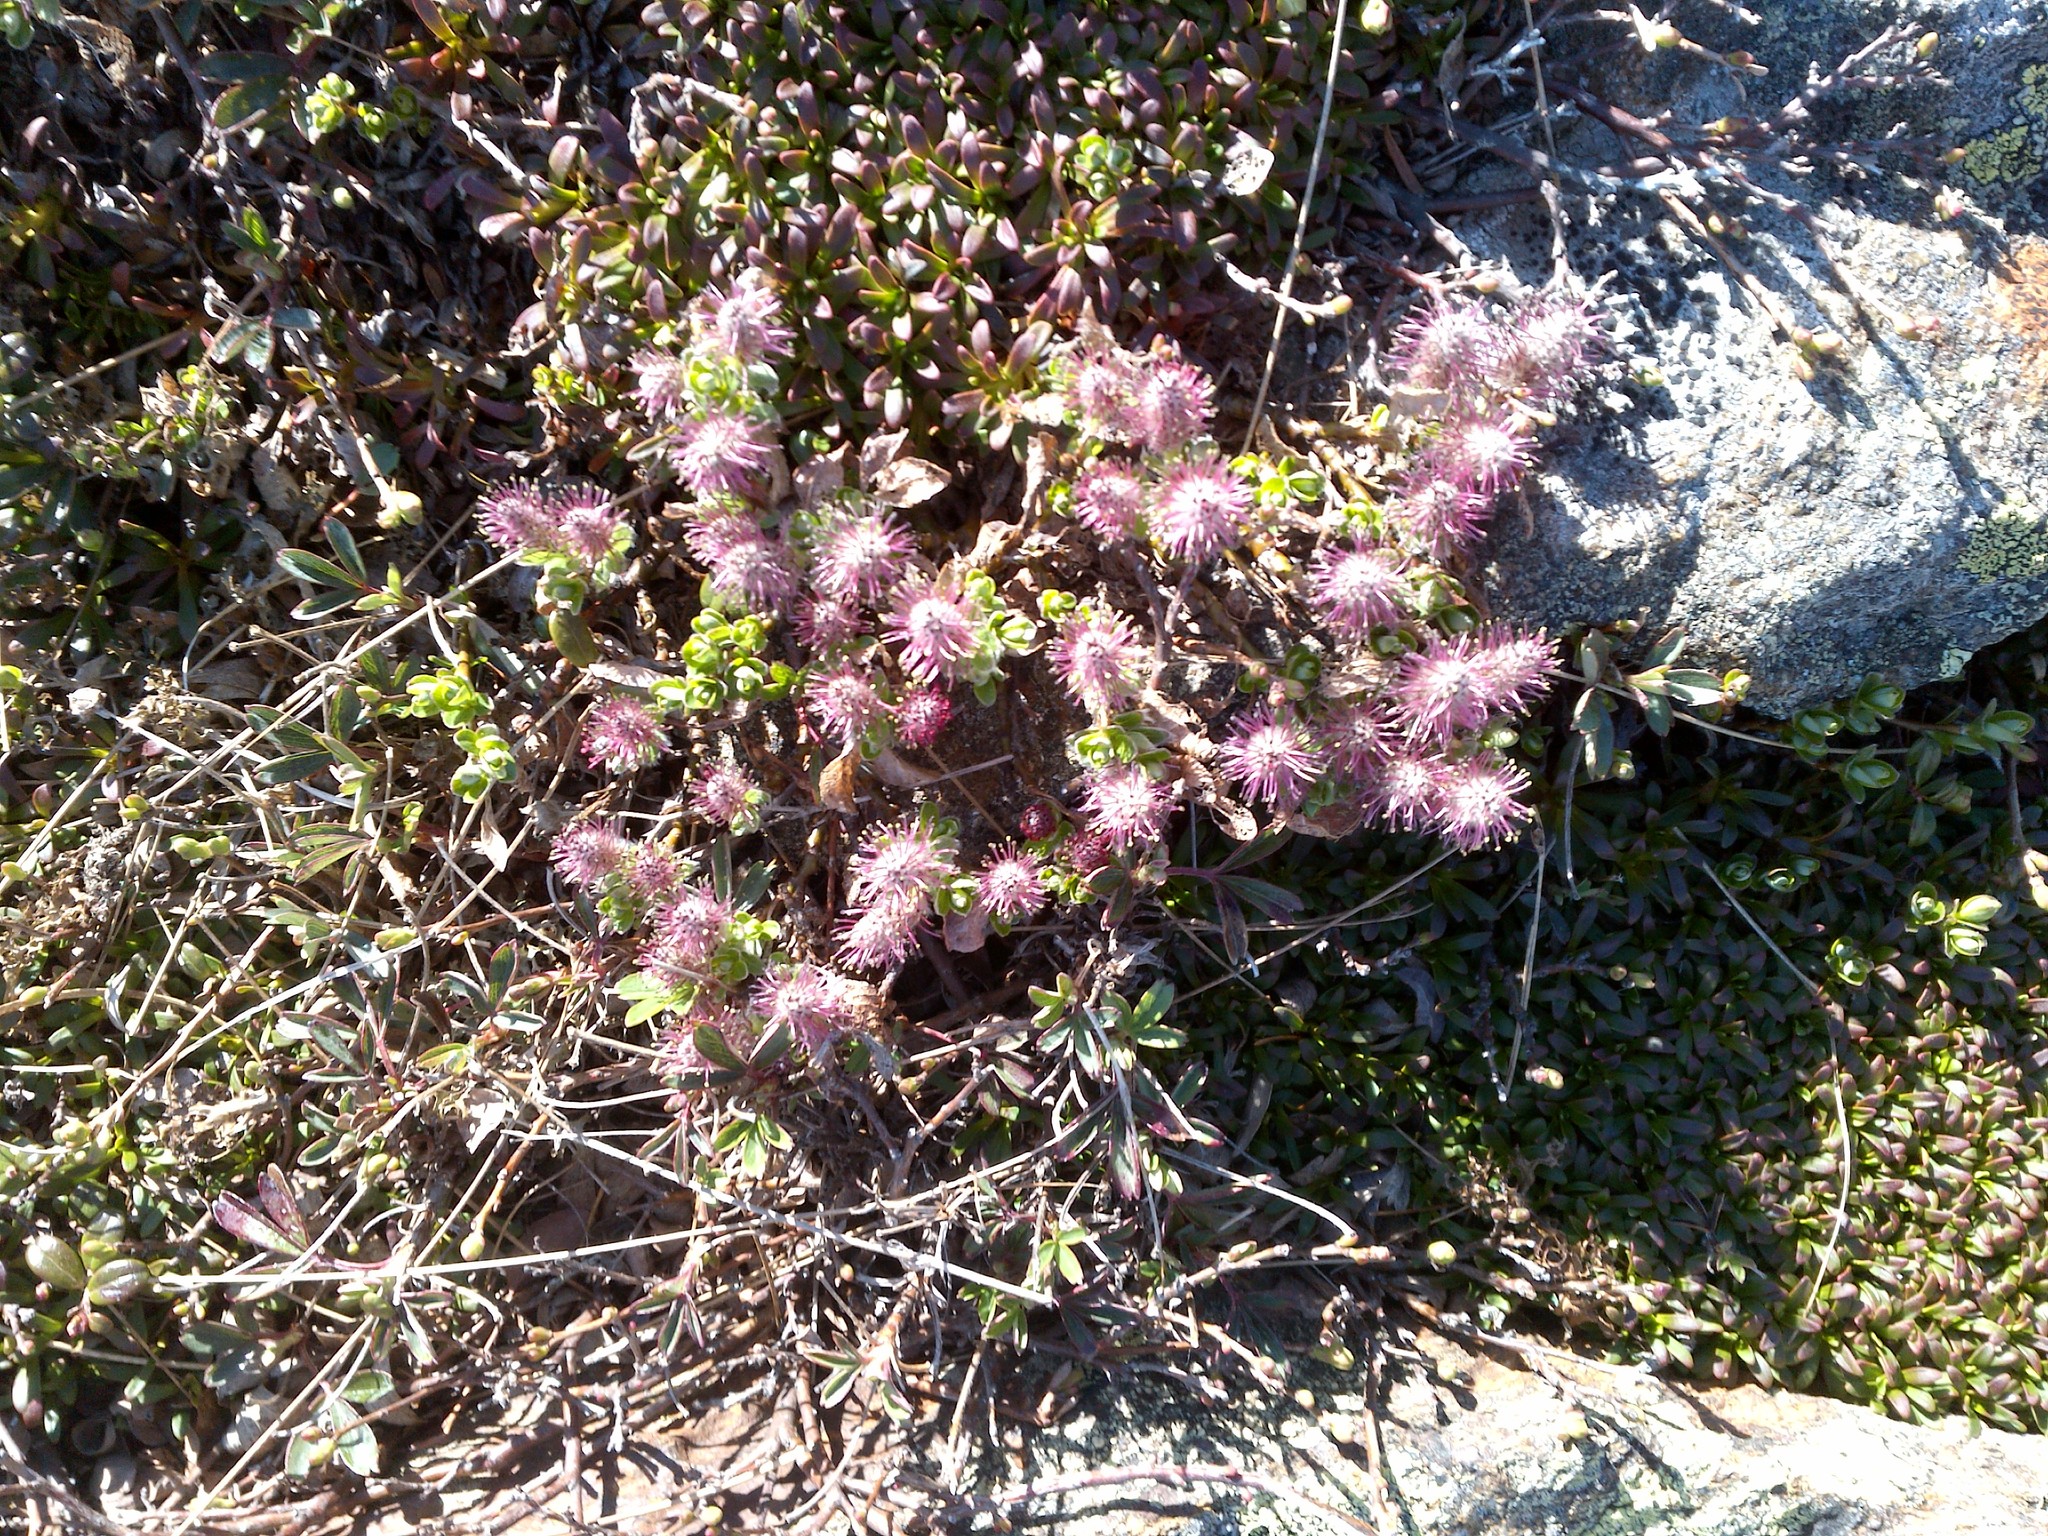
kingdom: Plantae
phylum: Tracheophyta
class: Magnoliopsida
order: Malpighiales
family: Salicaceae
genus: Salix
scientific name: Salix uva-ursi
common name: Bearberry willow
